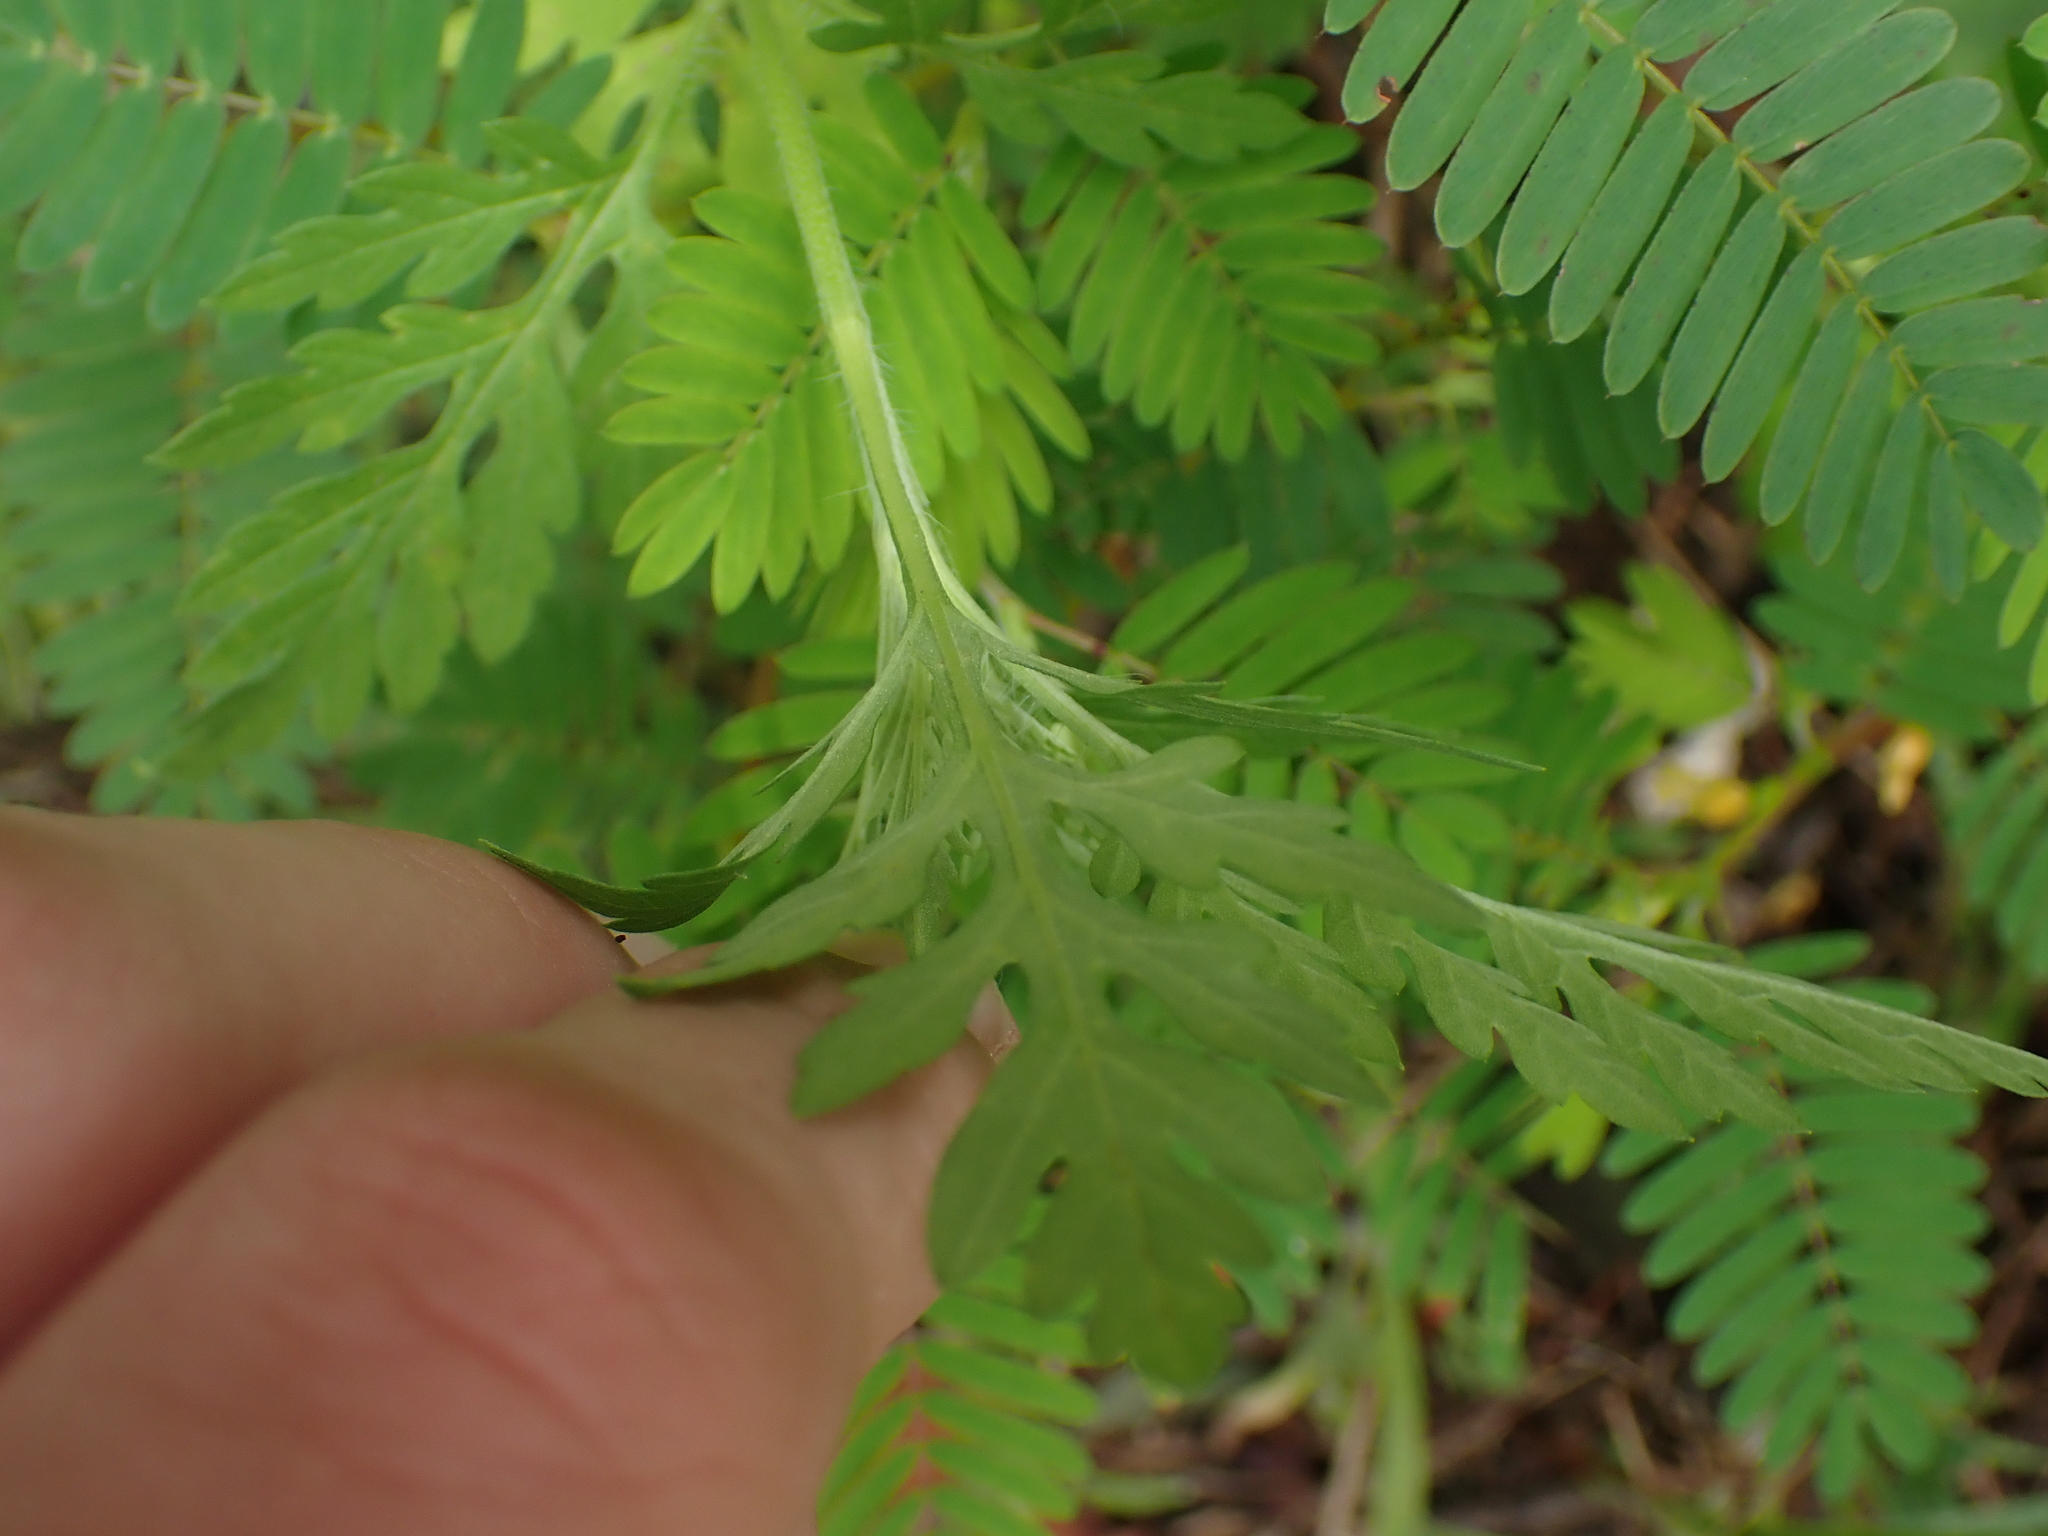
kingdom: Plantae
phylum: Tracheophyta
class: Magnoliopsida
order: Asterales
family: Asteraceae
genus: Ambrosia
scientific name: Ambrosia artemisiifolia
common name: Annual ragweed
